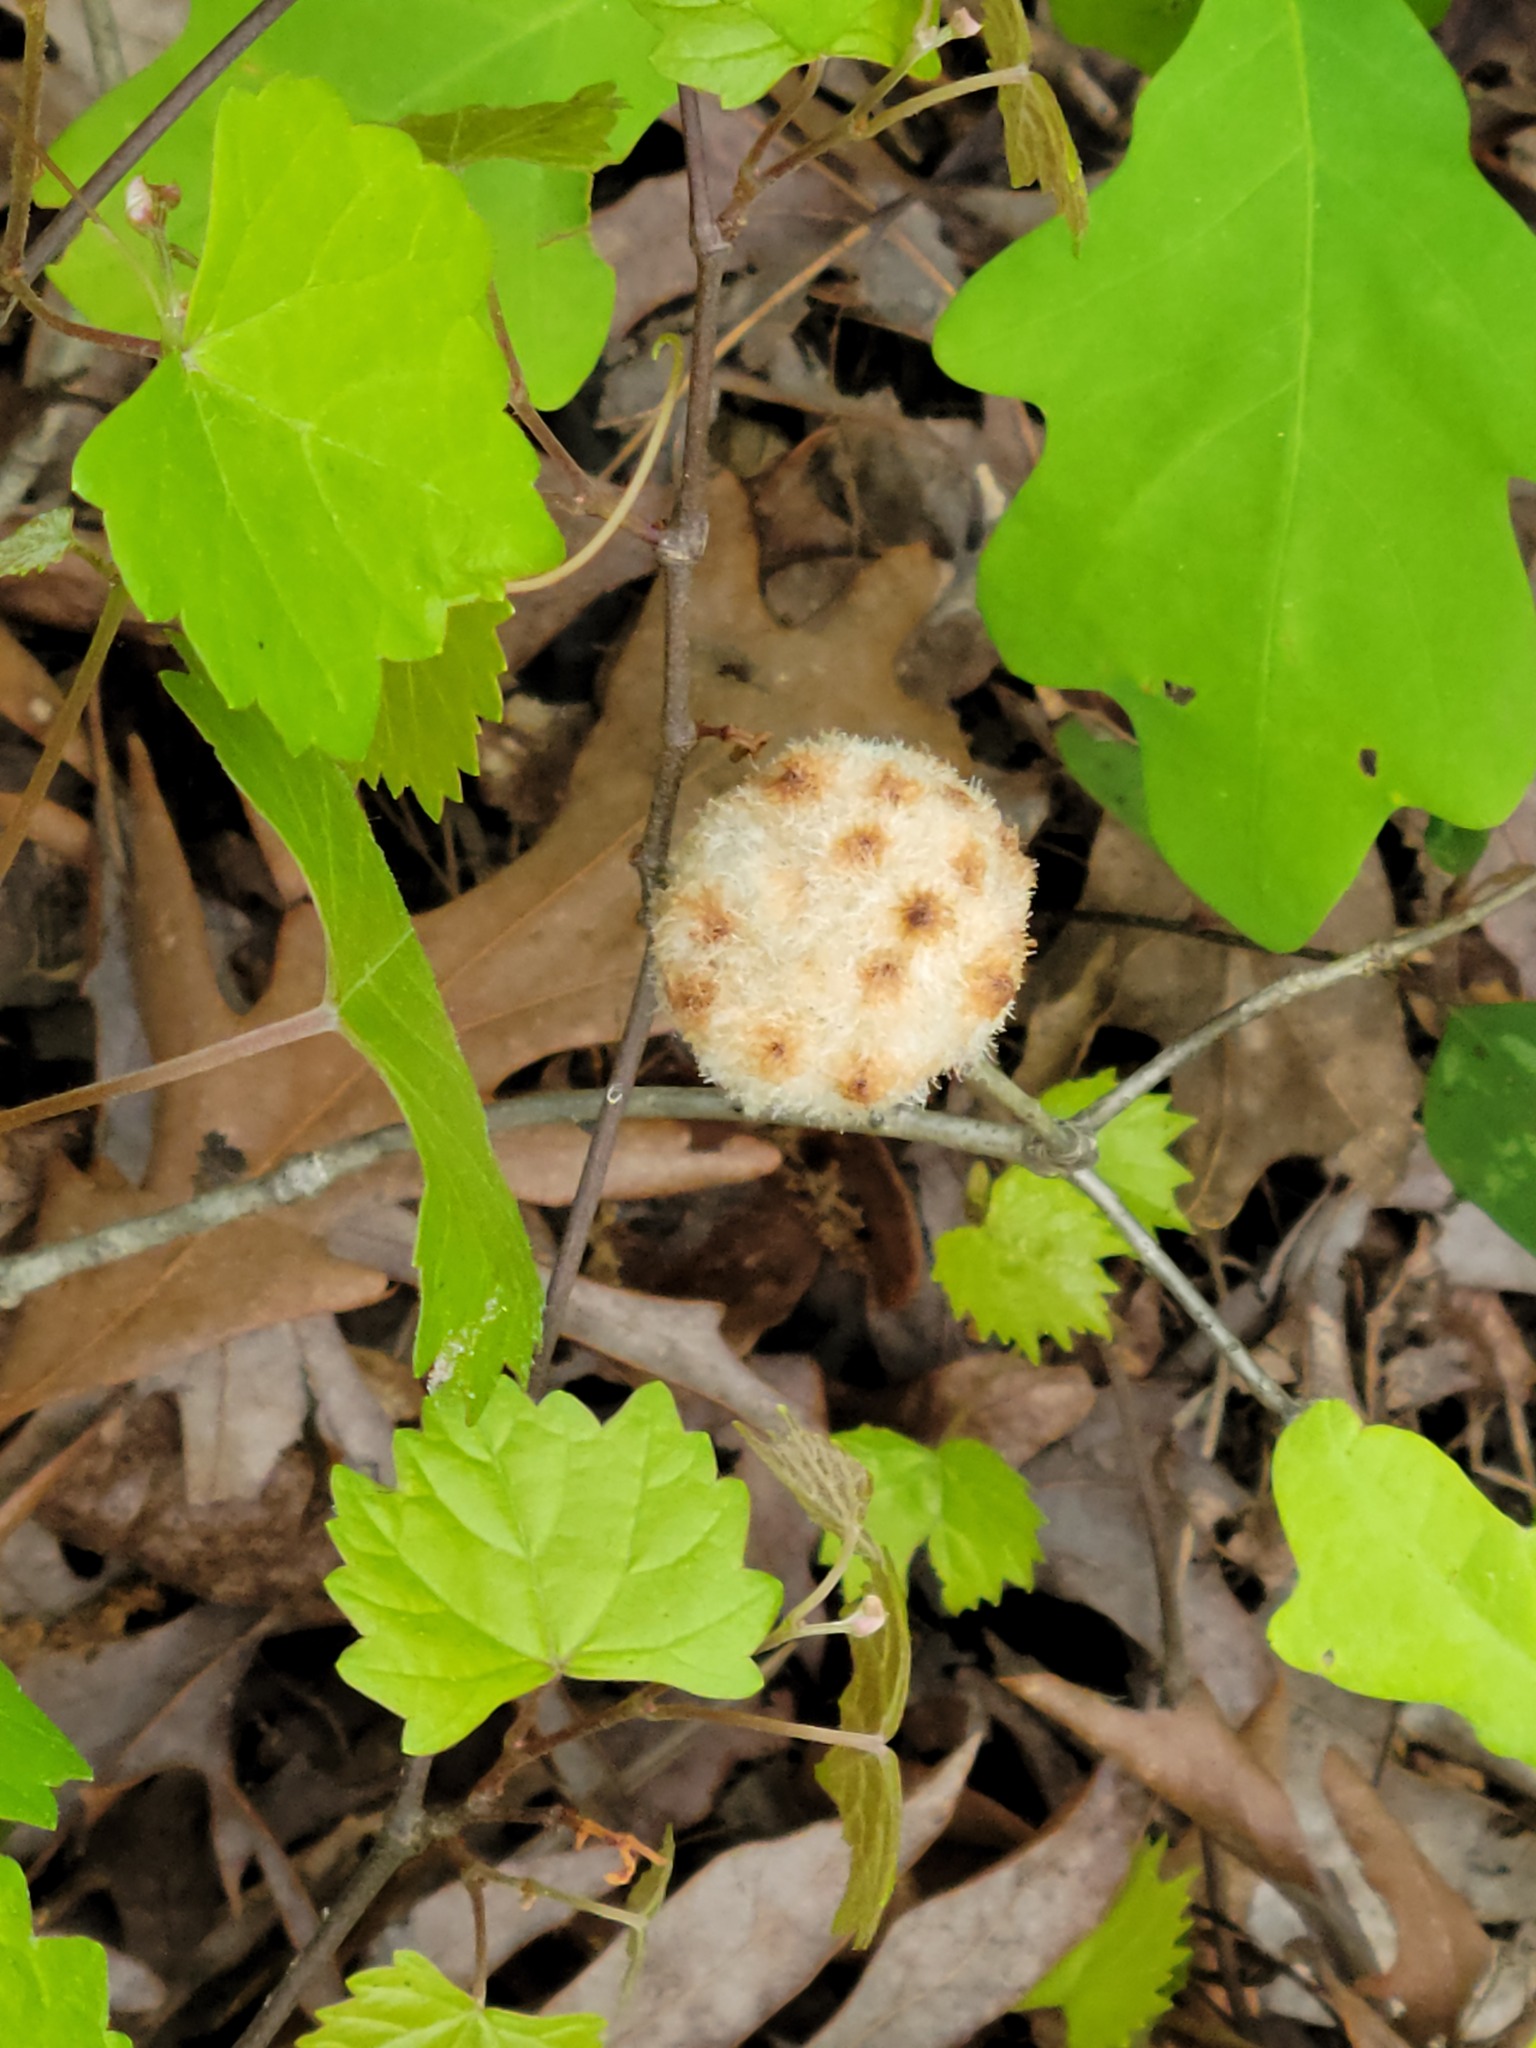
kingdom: Animalia
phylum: Arthropoda
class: Insecta
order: Hymenoptera
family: Cynipidae
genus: Callirhytis
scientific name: Callirhytis
